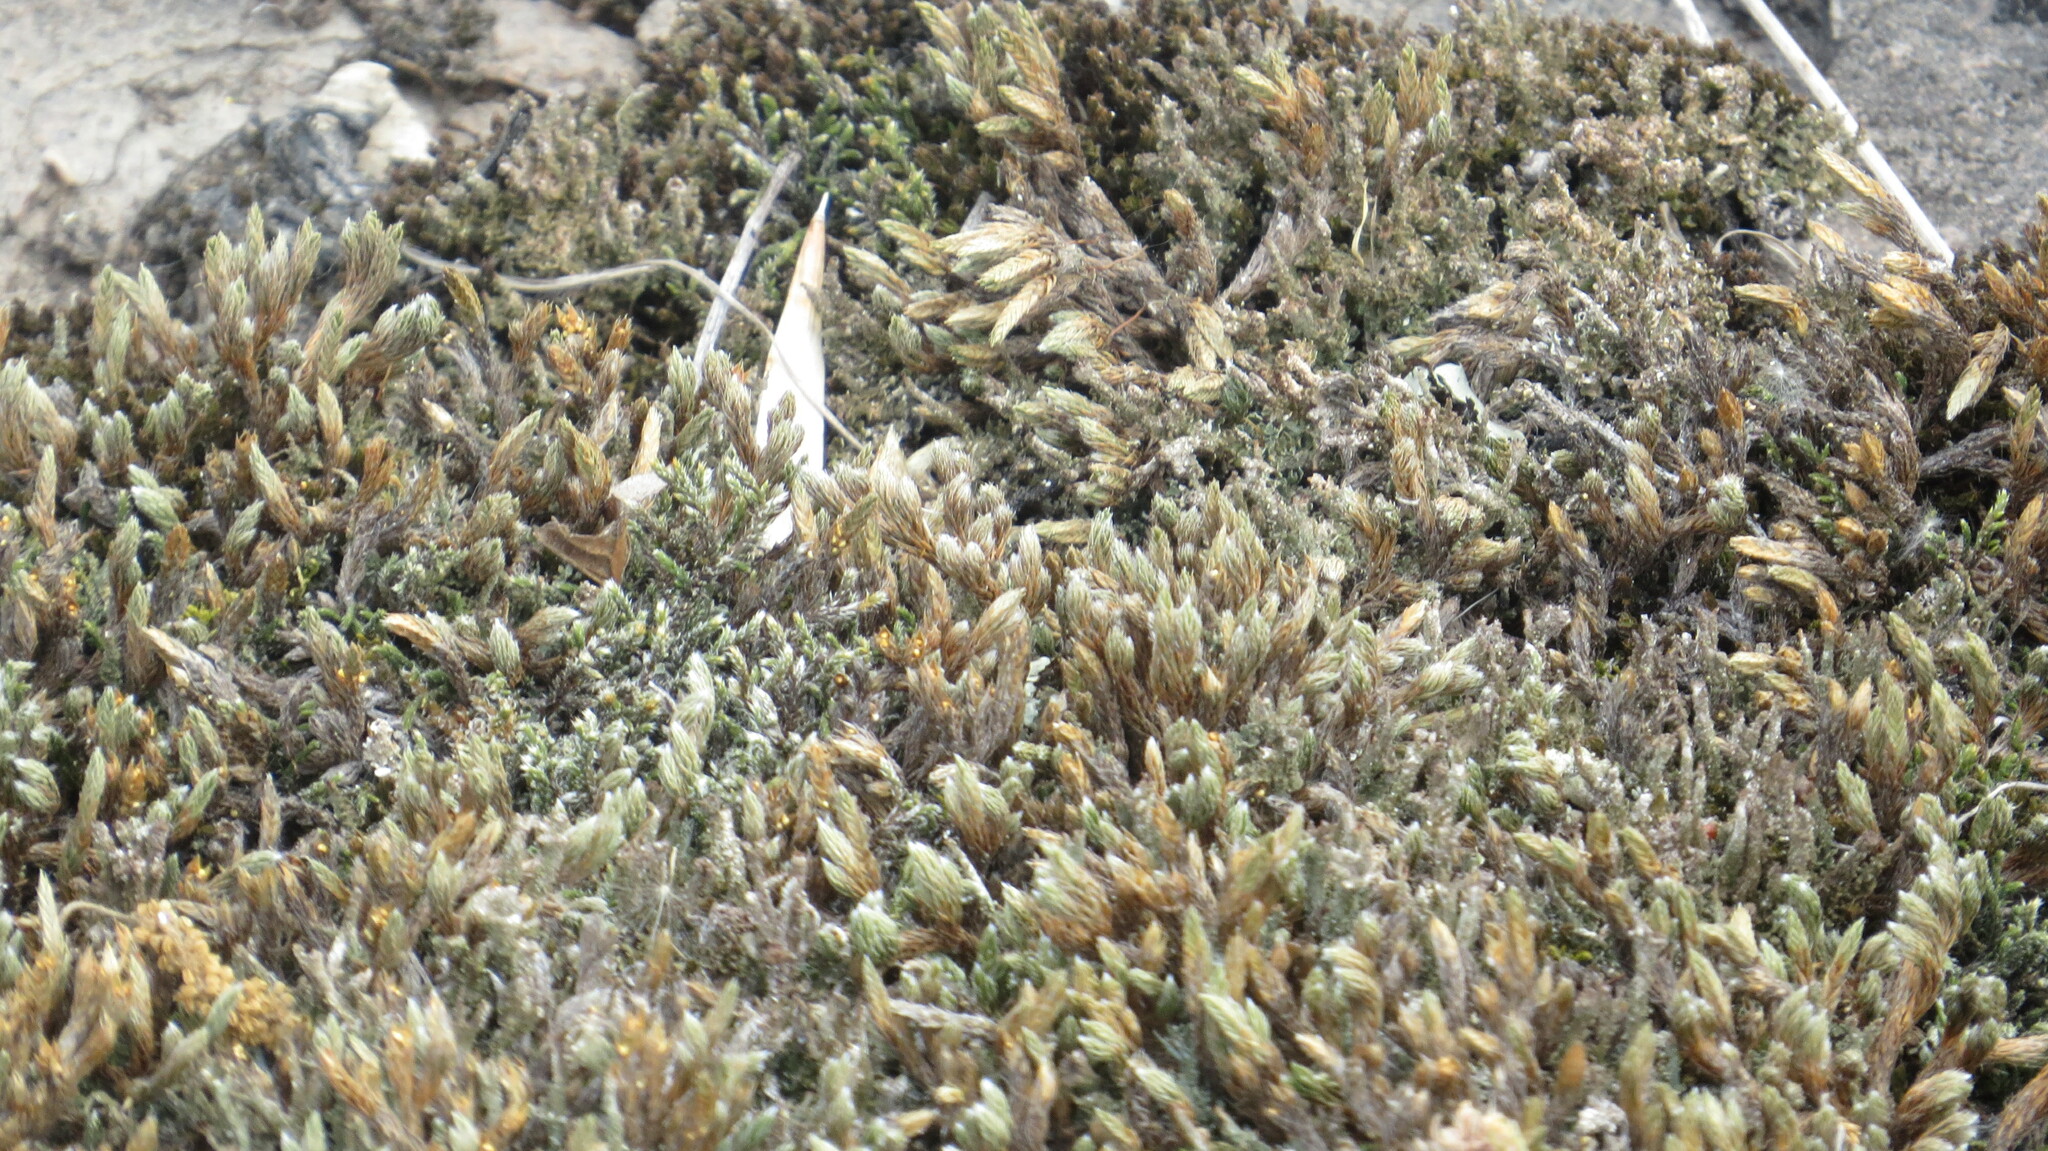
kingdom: Plantae
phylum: Tracheophyta
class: Lycopodiopsida
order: Selaginellales
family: Selaginellaceae
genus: Selaginella
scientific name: Selaginella rupestris
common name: Dwarf spikemoss
